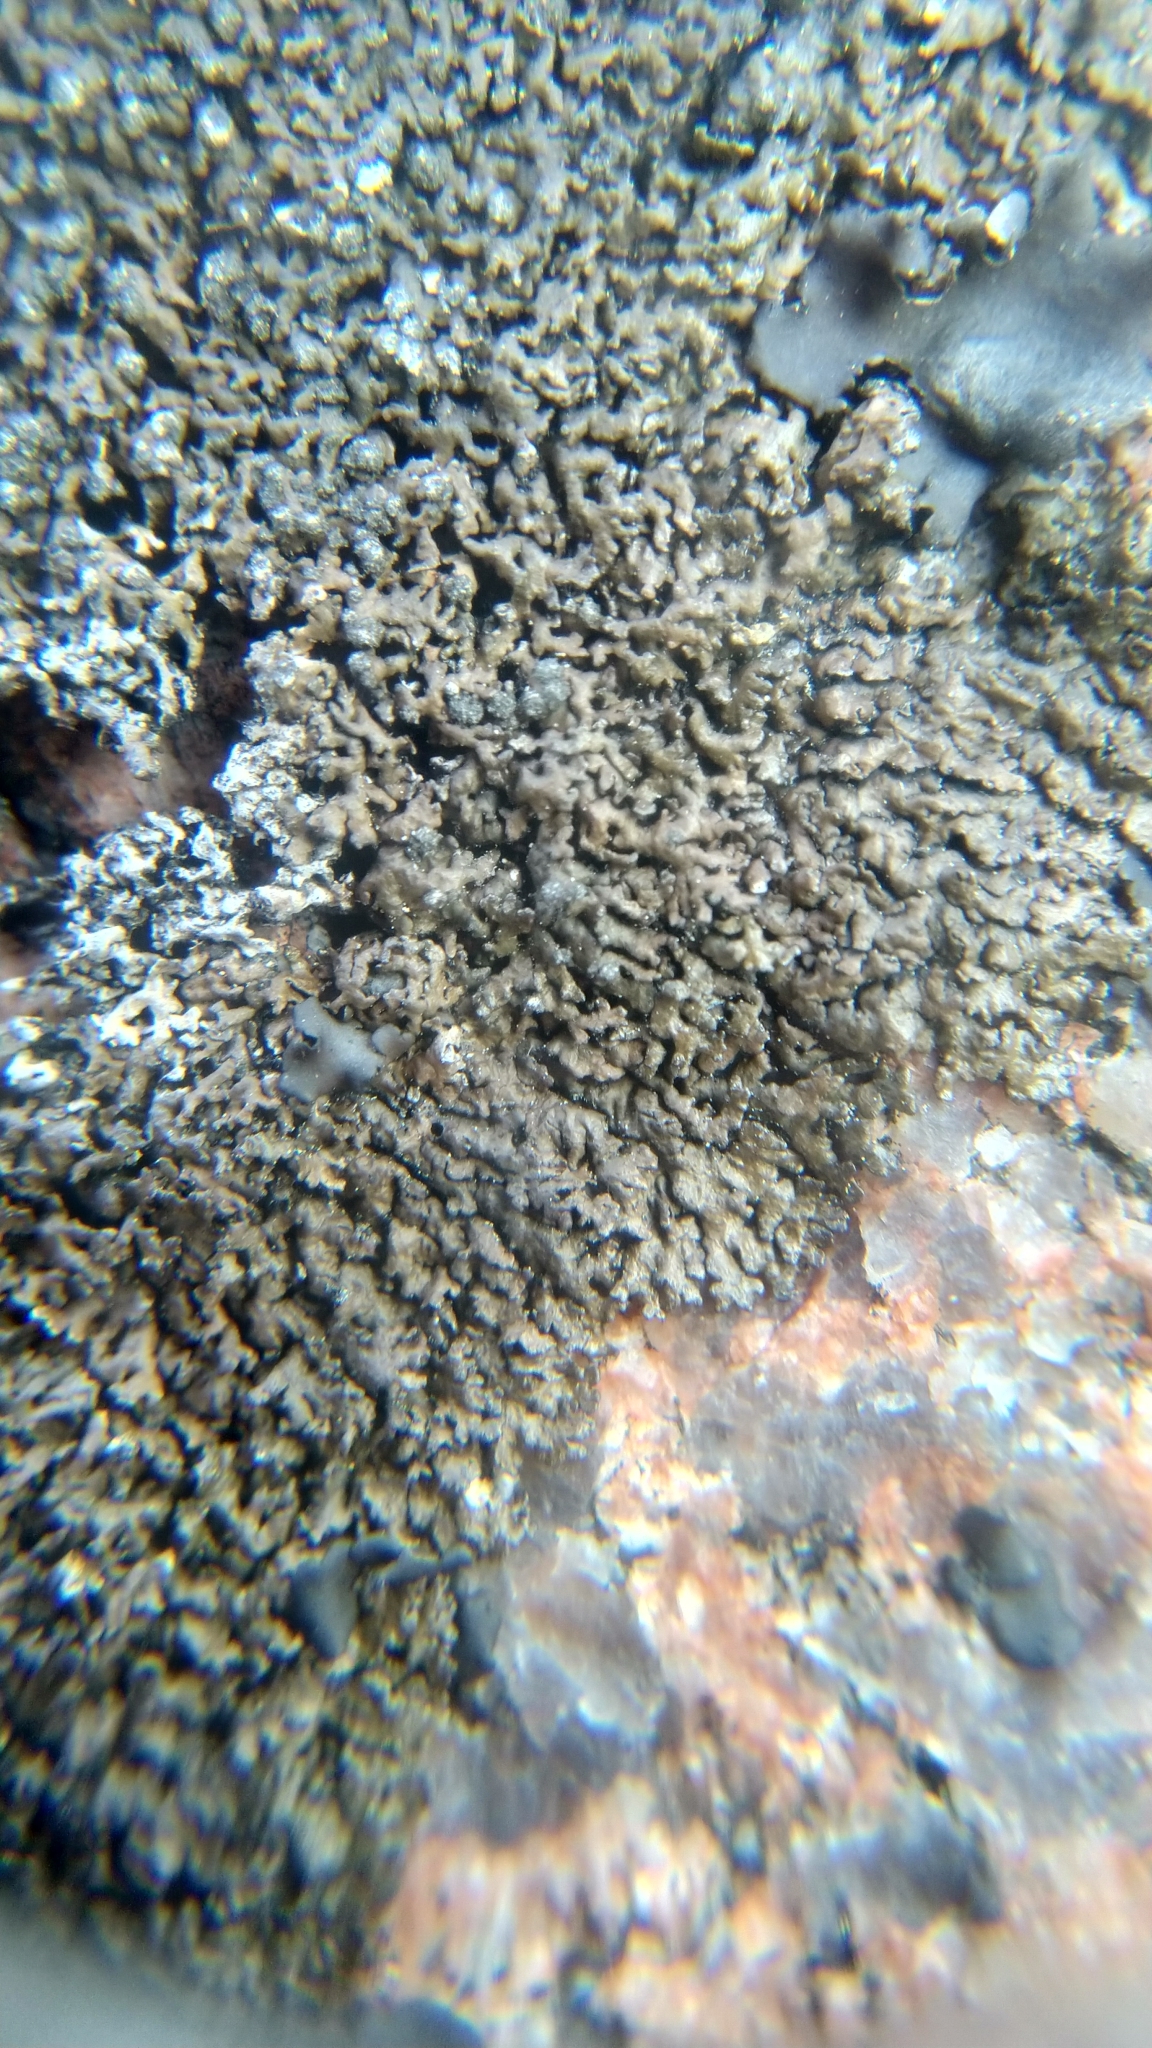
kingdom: Fungi
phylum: Ascomycota
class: Lecanoromycetes
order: Lecanorales
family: Parmeliaceae
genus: Montanelia
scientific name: Montanelia sorediata
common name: Powdered camouflage lichen
